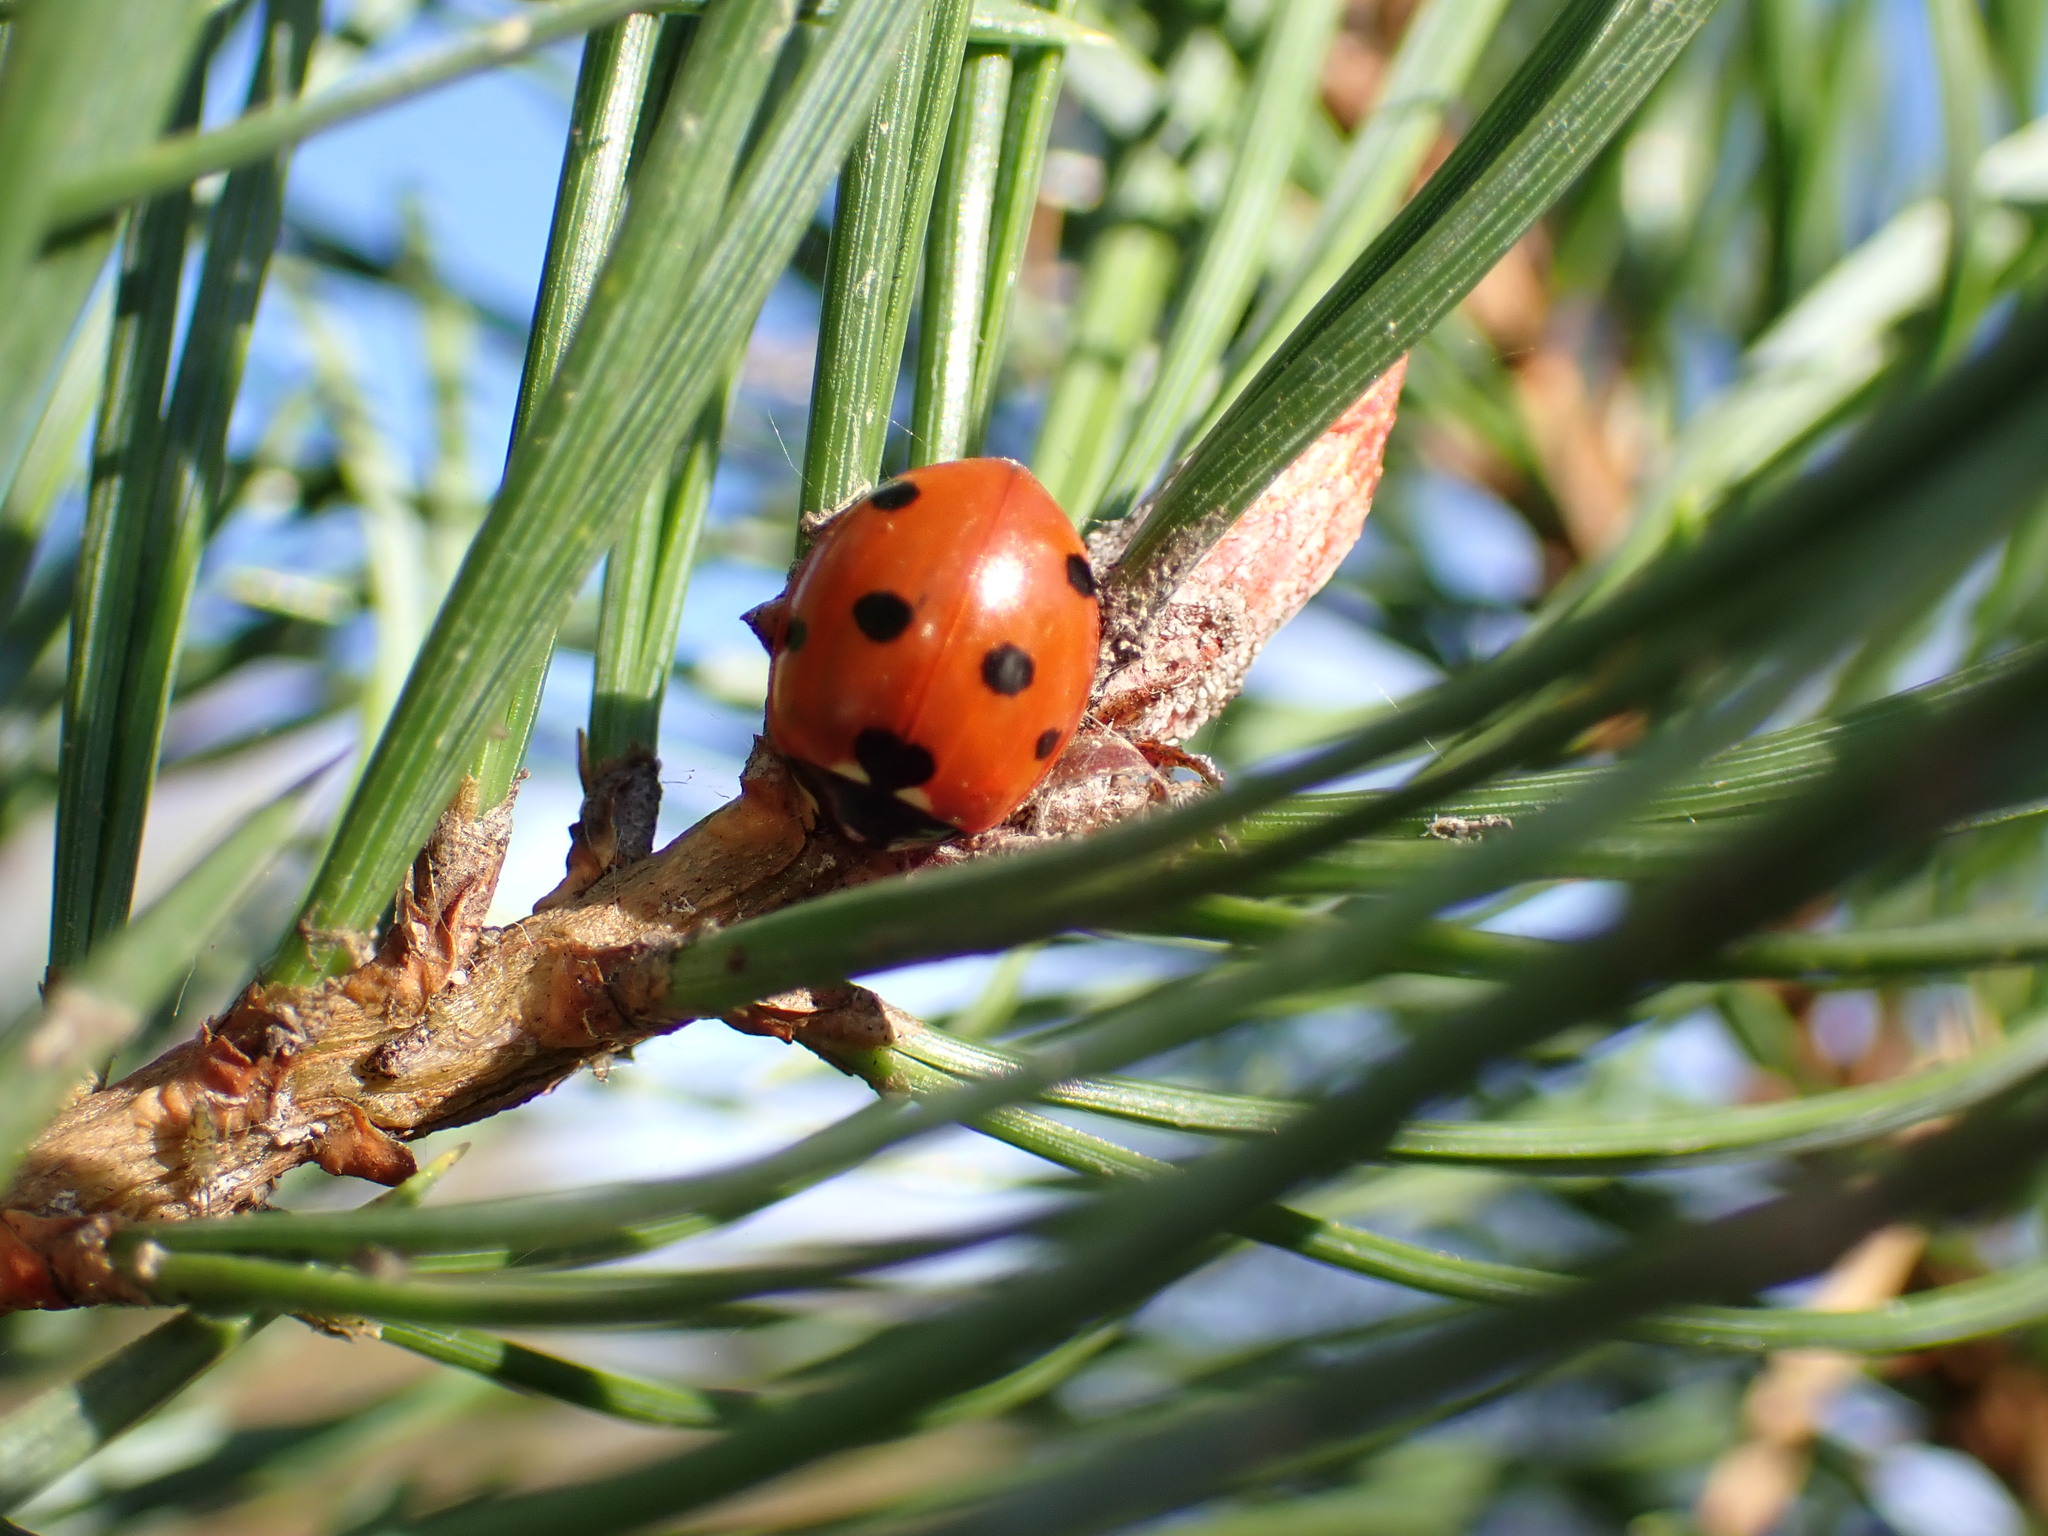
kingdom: Animalia
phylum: Arthropoda
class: Insecta
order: Coleoptera
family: Coccinellidae
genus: Coccinella
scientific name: Coccinella septempunctata
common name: Sevenspotted lady beetle
